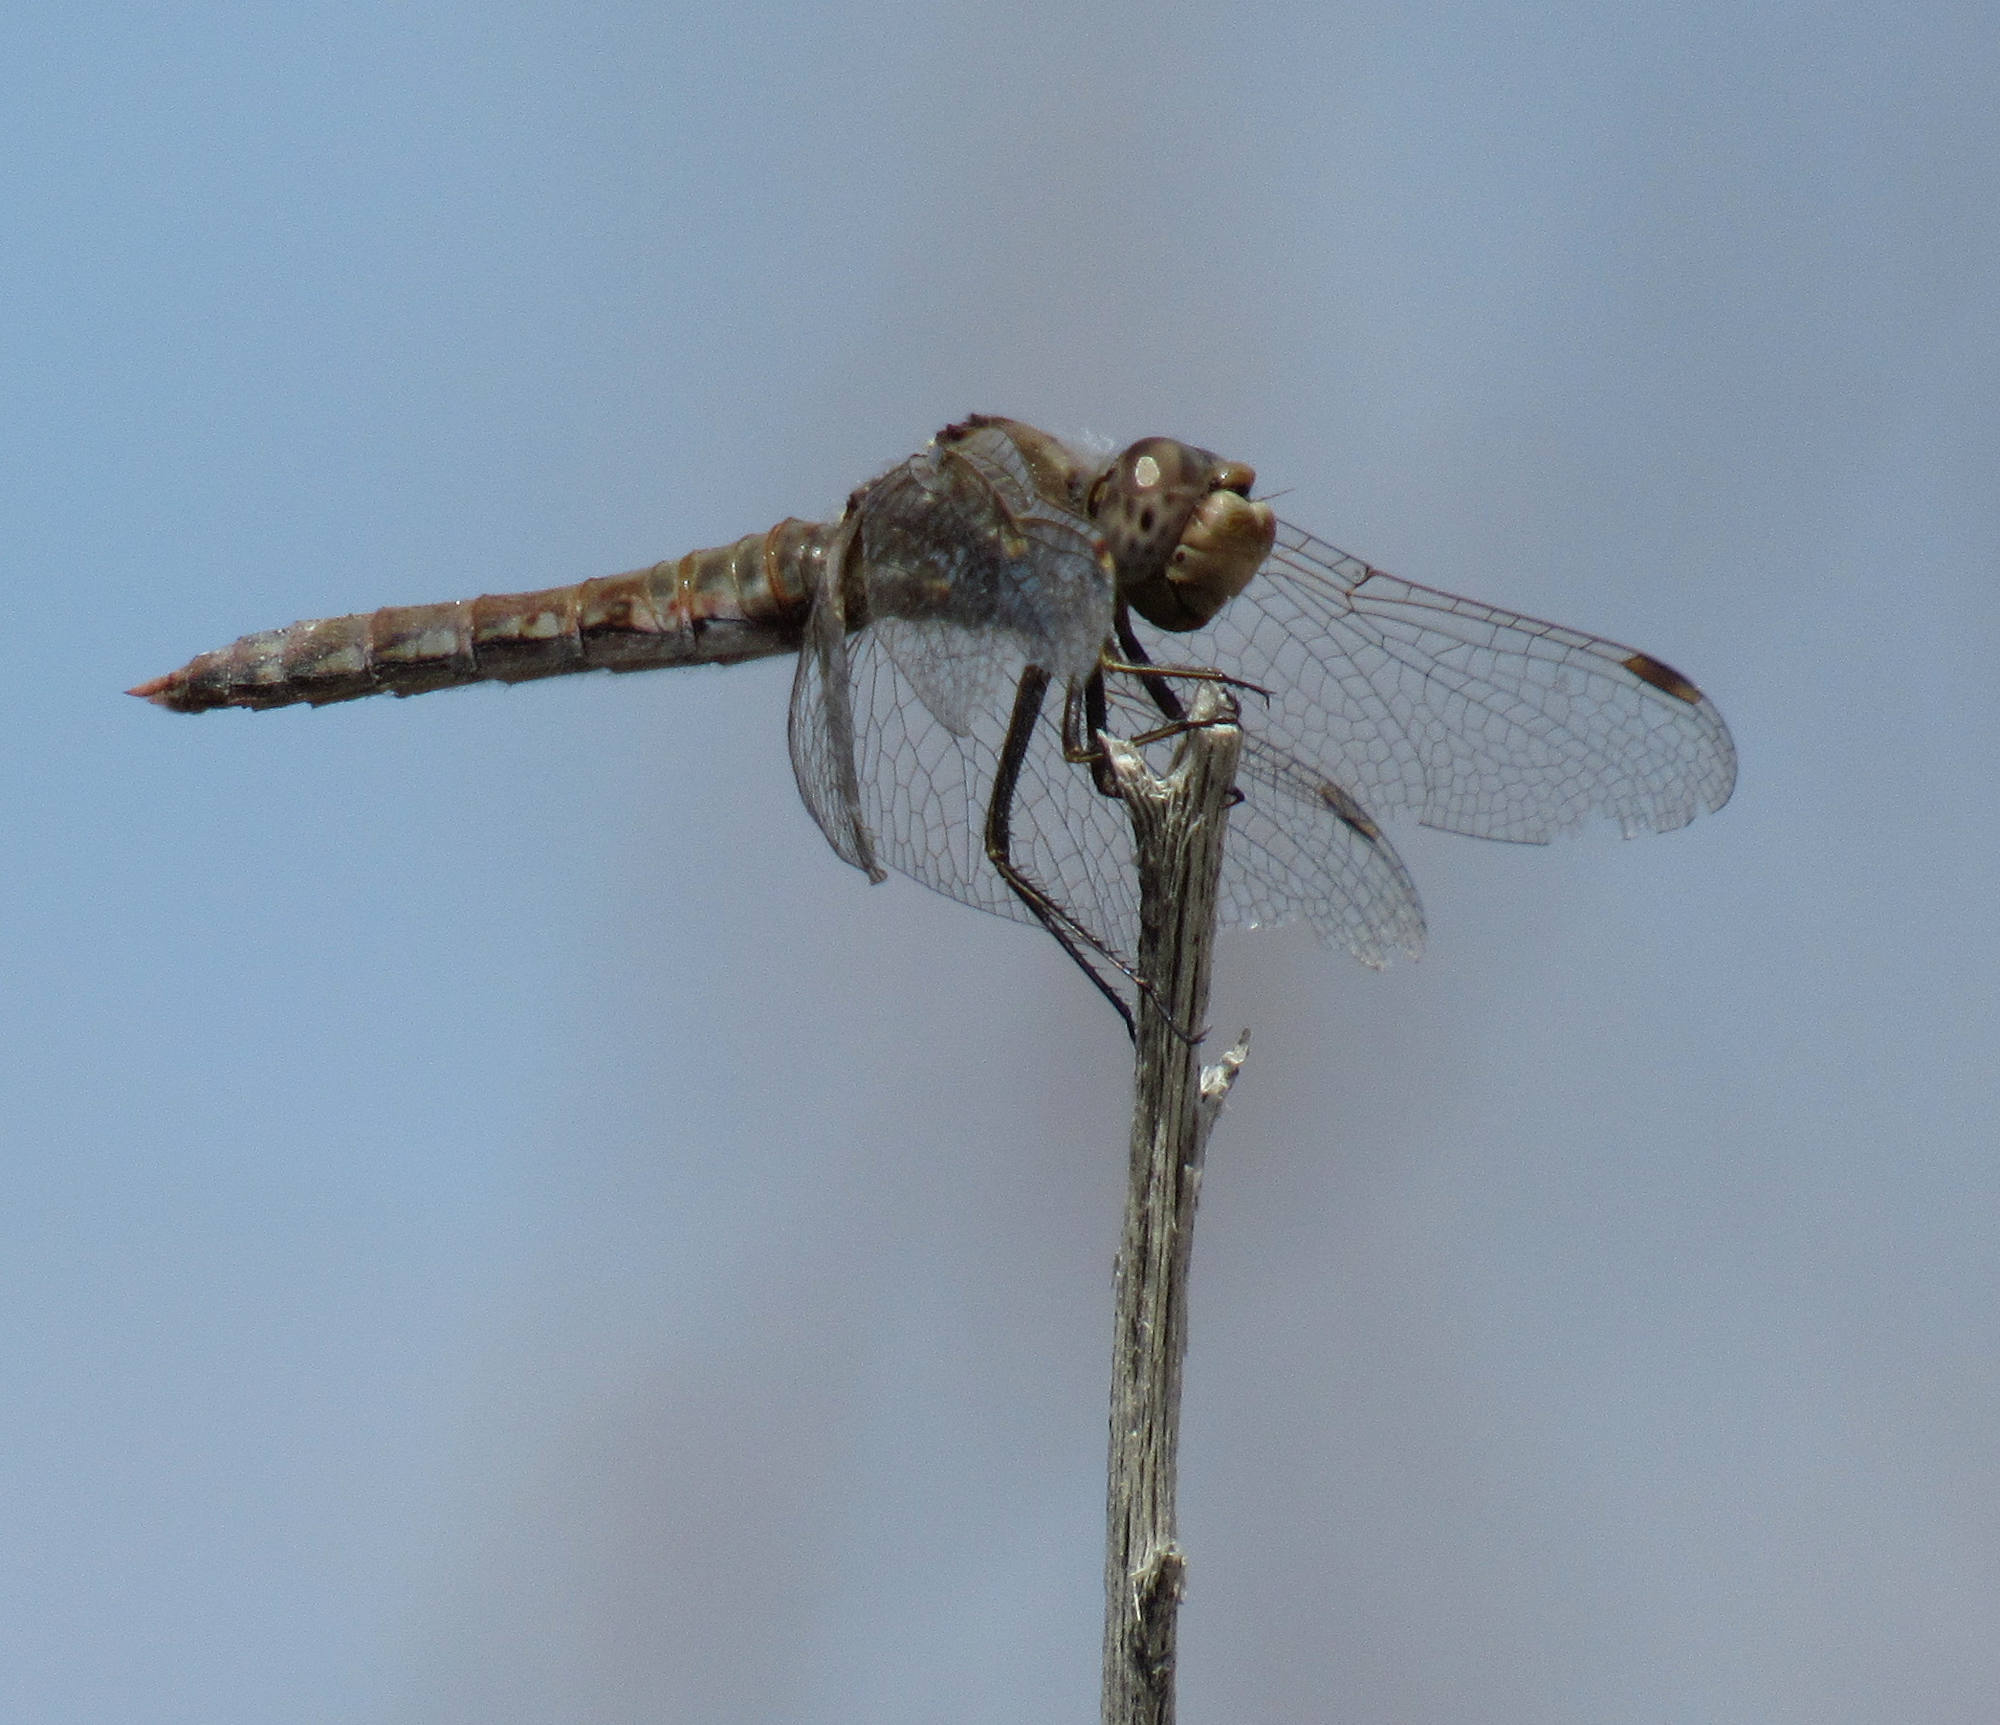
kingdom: Animalia
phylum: Arthropoda
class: Insecta
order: Odonata
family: Libellulidae
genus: Sympetrum
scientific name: Sympetrum corruptum
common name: Variegated meadowhawk
